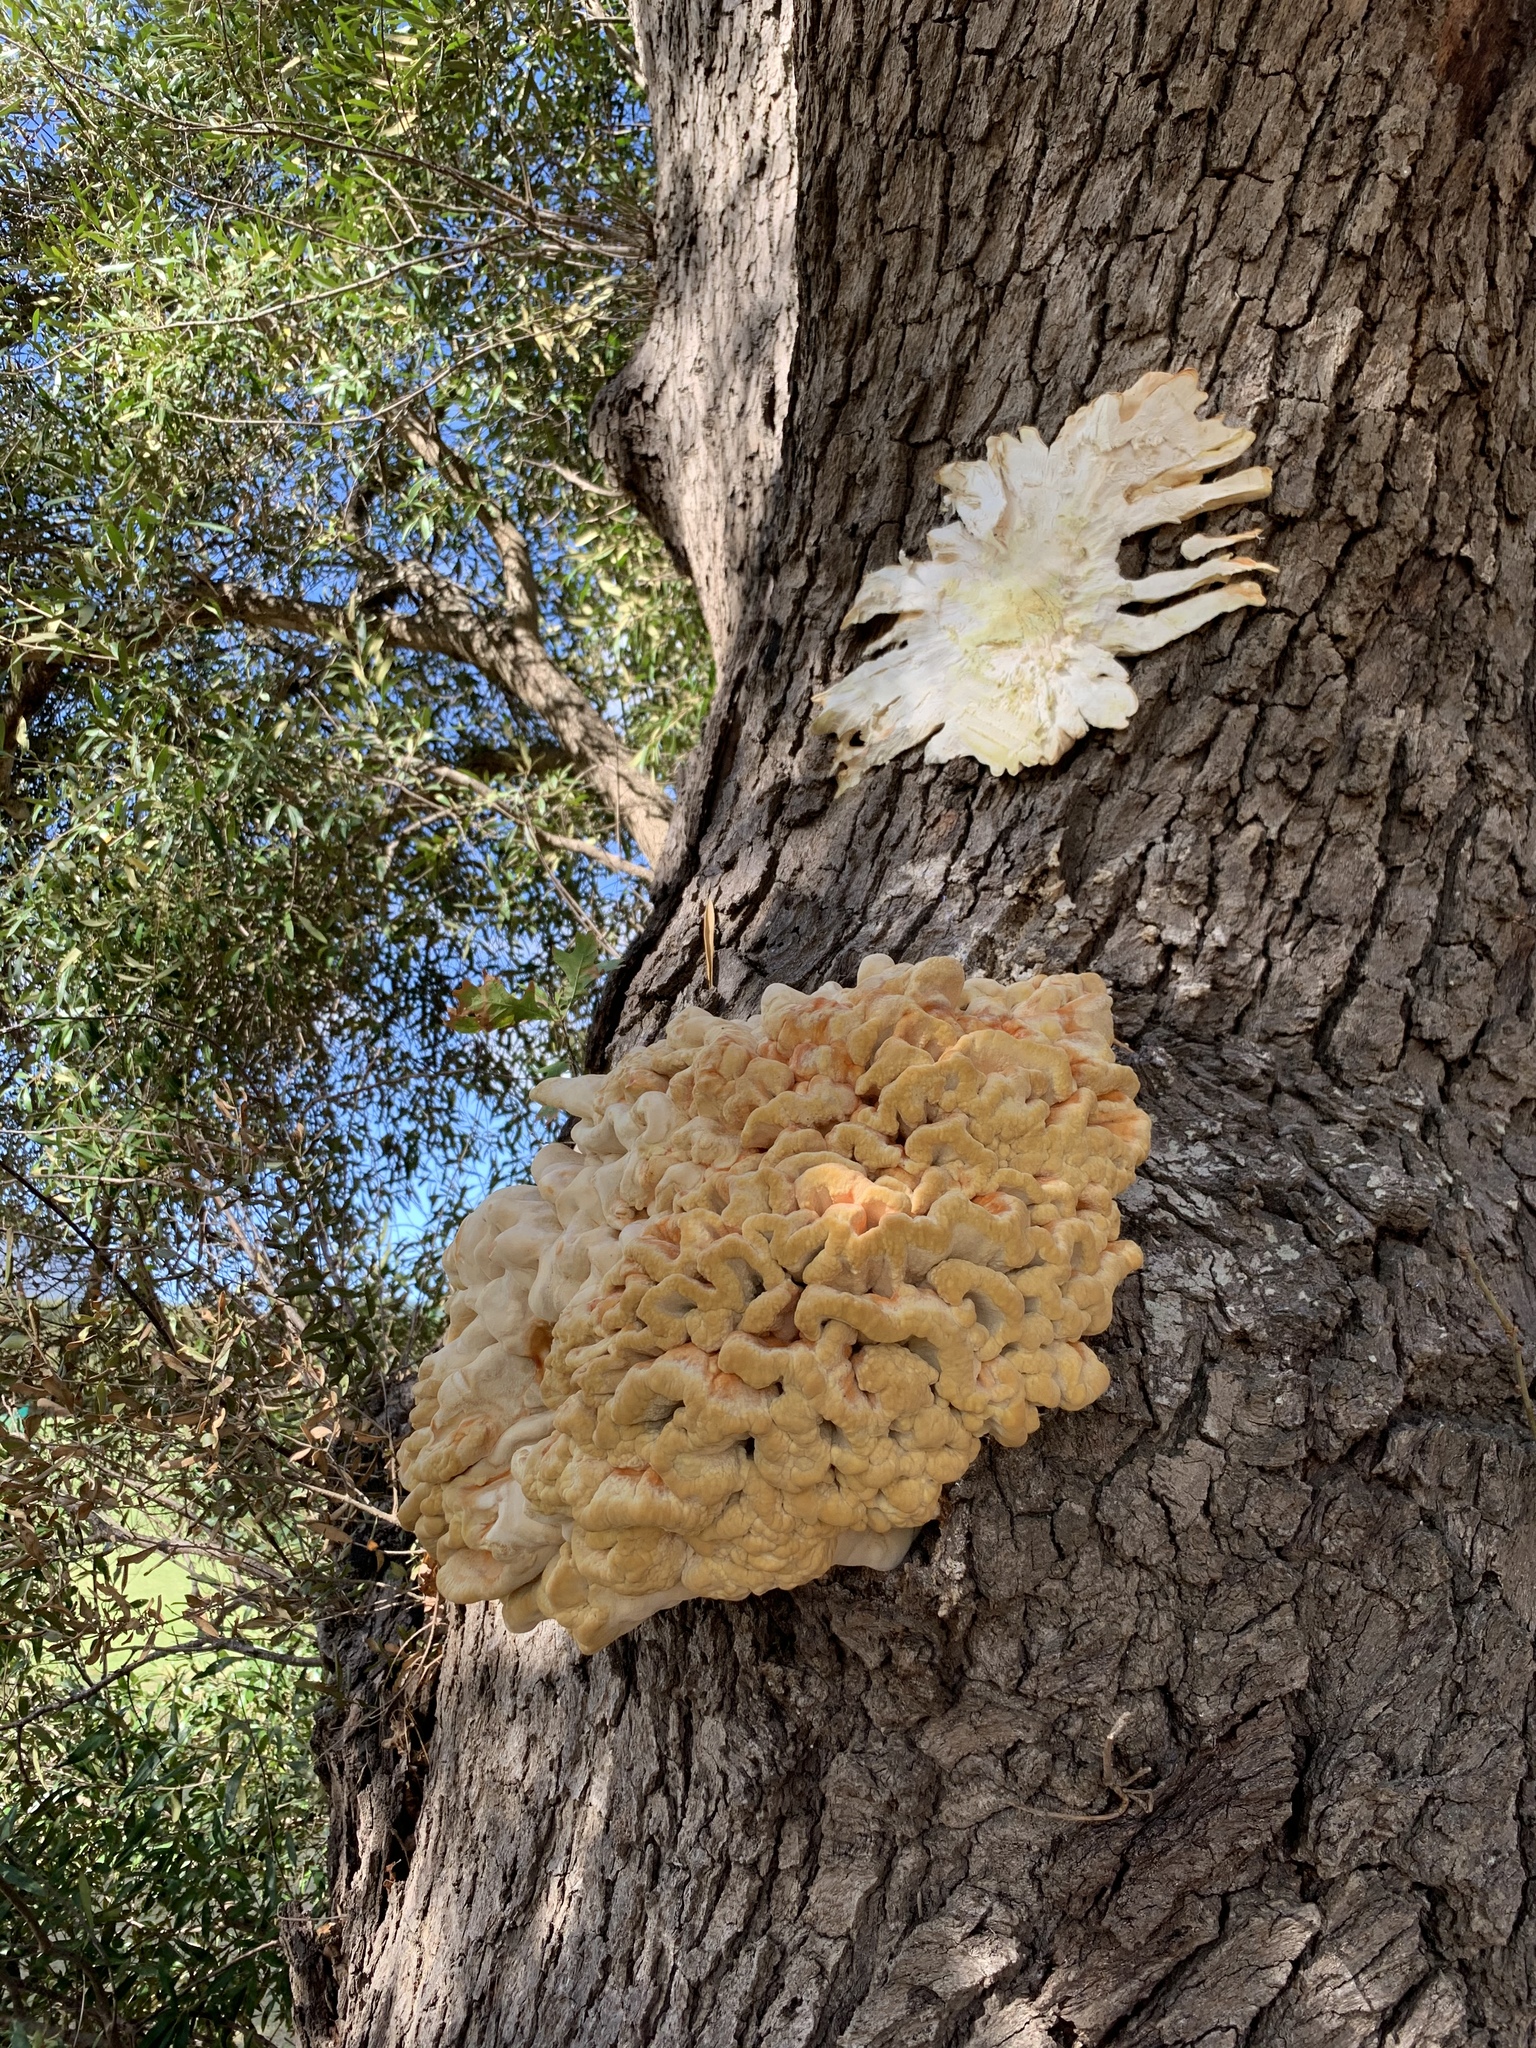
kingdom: Fungi
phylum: Basidiomycota
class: Agaricomycetes
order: Polyporales
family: Laetiporaceae
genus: Laetiporus
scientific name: Laetiporus sulphureus
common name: Chicken of the woods
